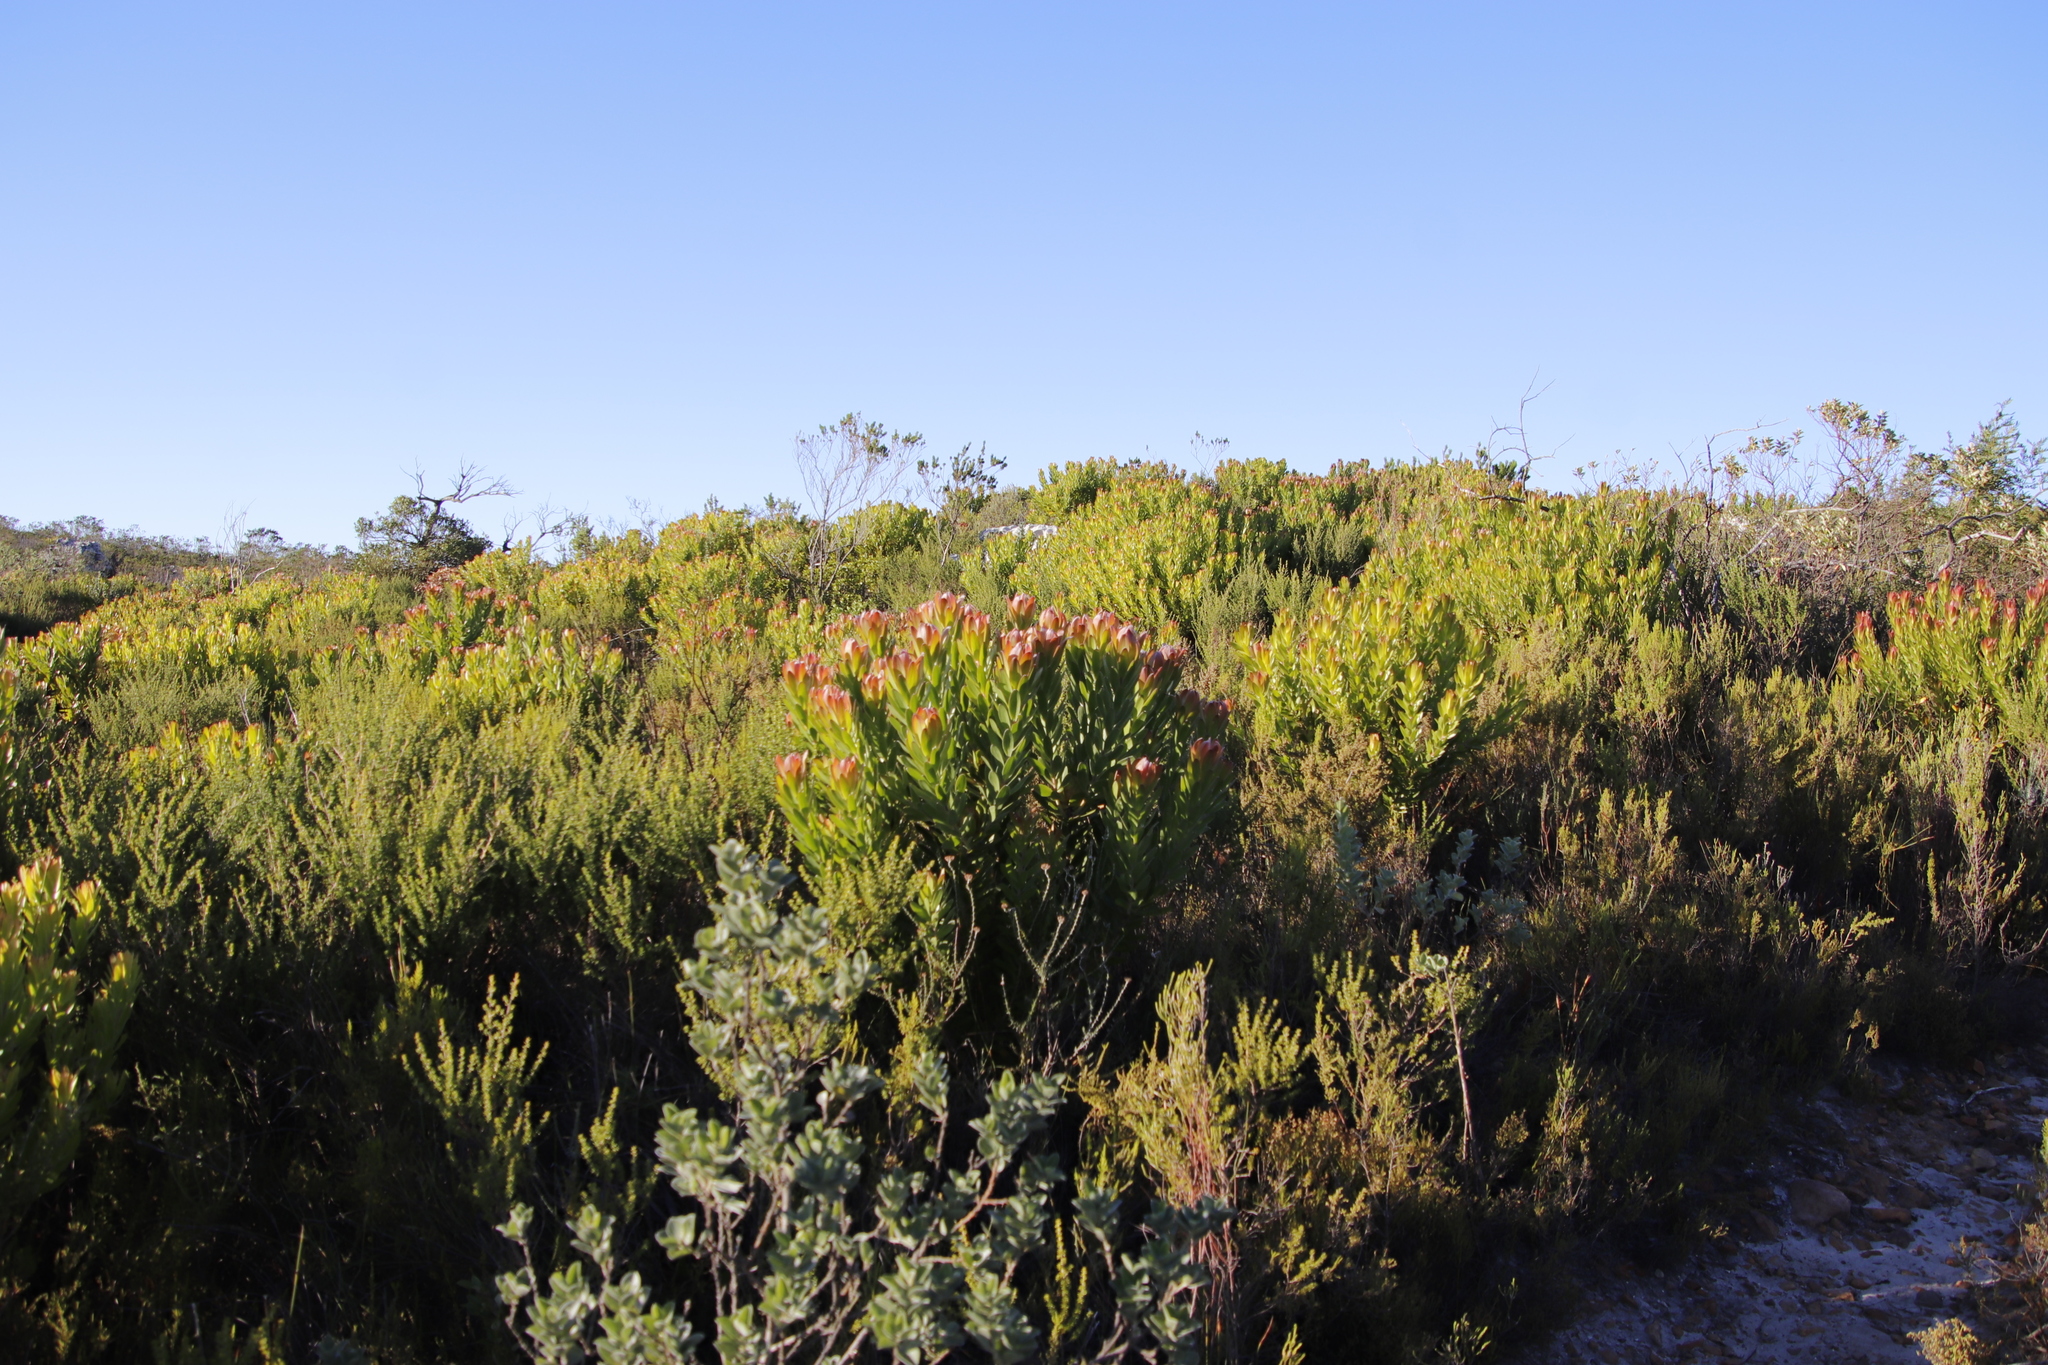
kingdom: Plantae
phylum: Tracheophyta
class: Magnoliopsida
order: Proteales
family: Proteaceae
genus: Leucadendron
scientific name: Leucadendron laureolum
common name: Golden sunshinebush
